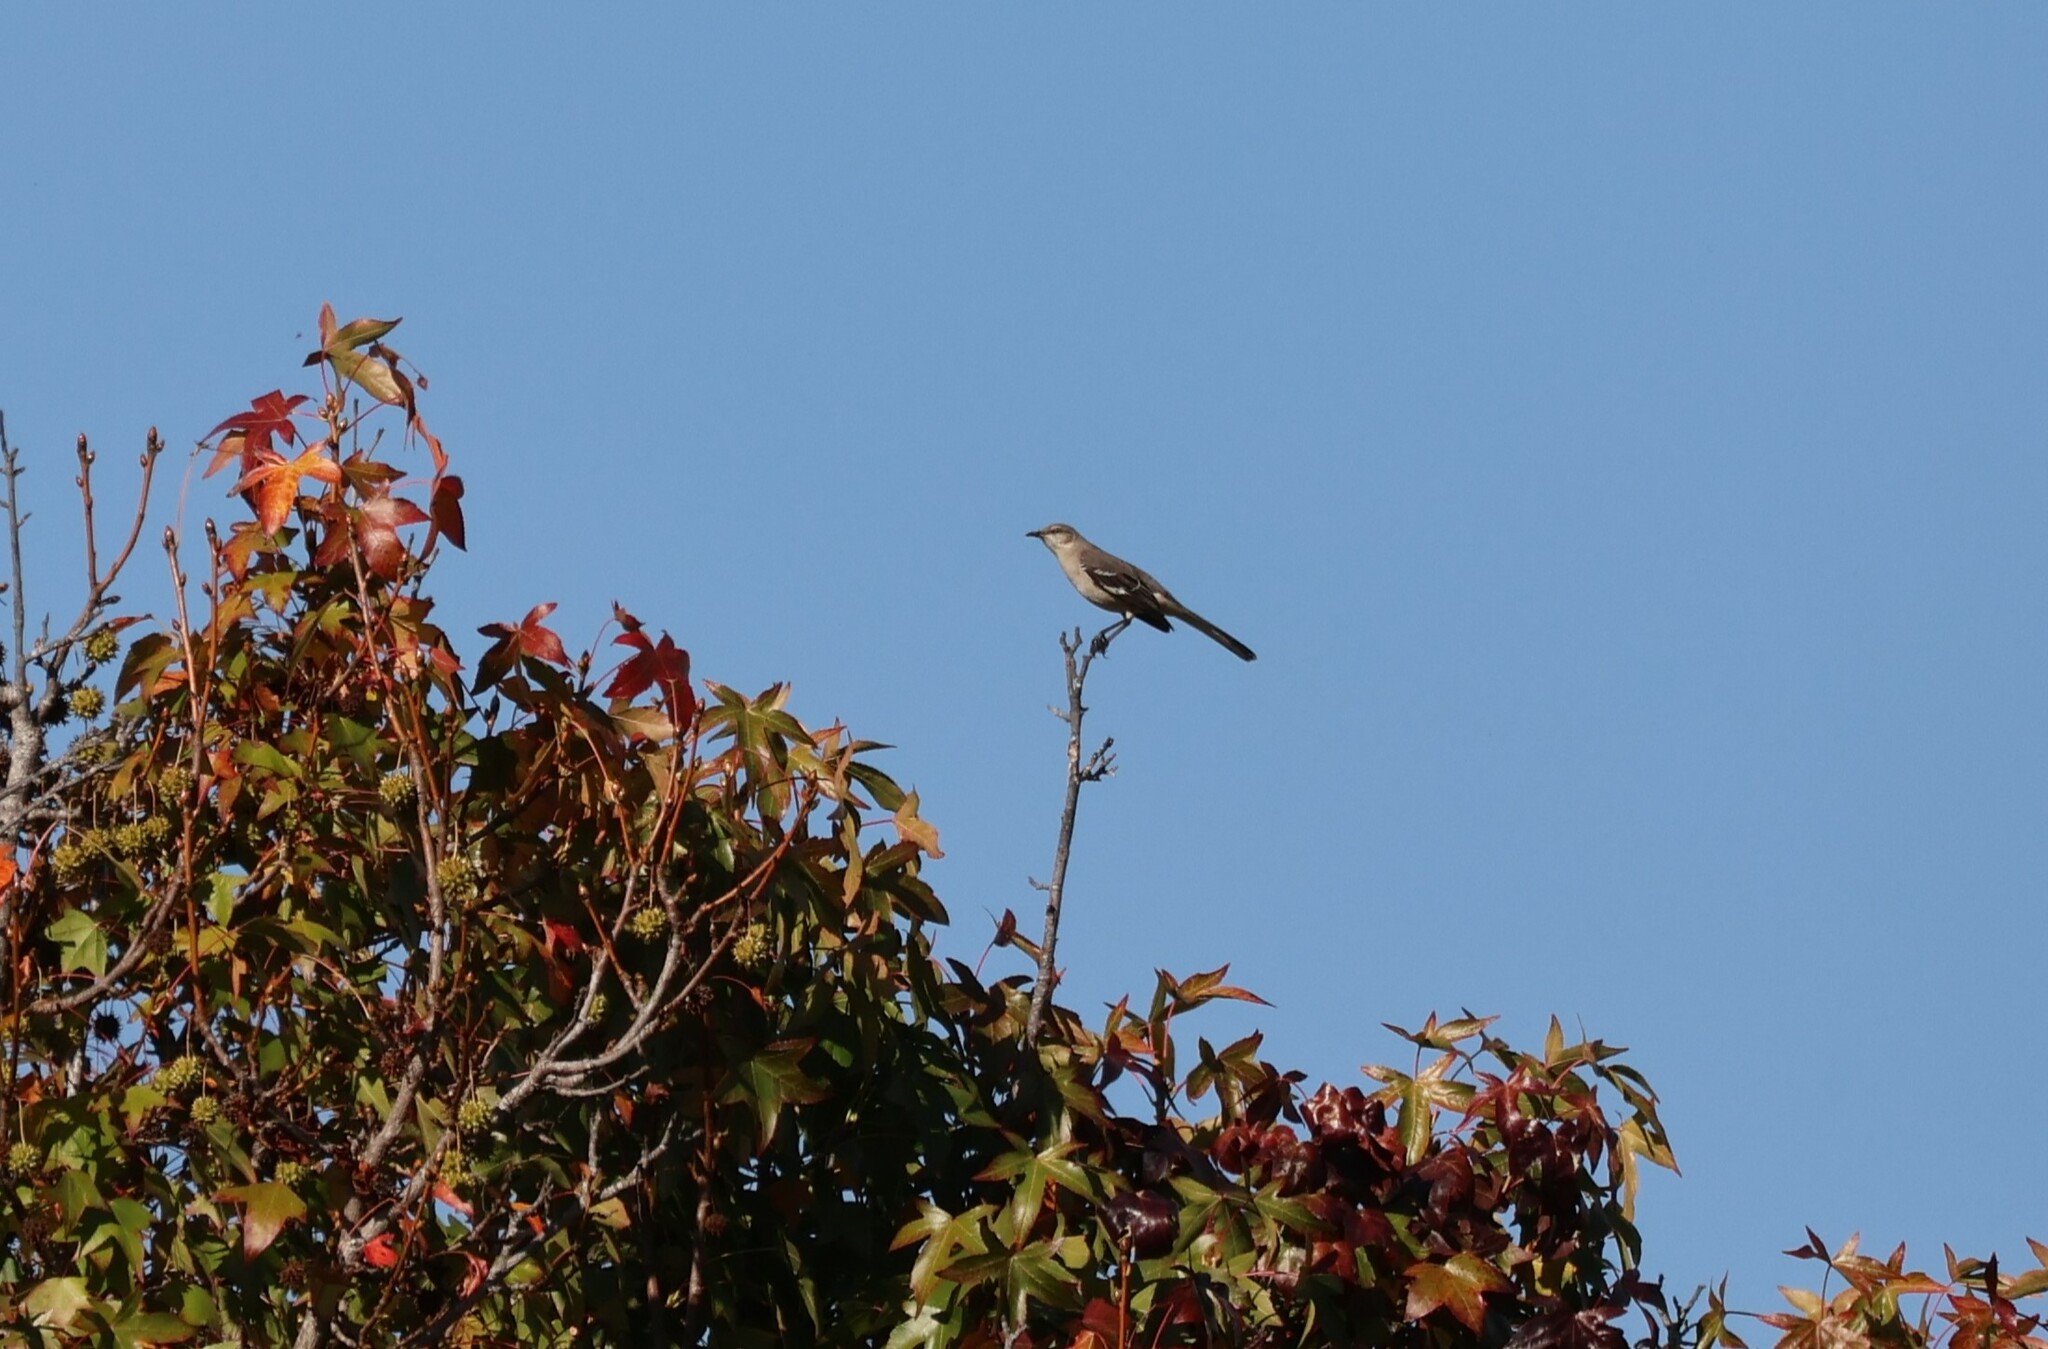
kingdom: Animalia
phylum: Chordata
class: Aves
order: Passeriformes
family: Mimidae
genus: Mimus
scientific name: Mimus polyglottos
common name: Northern mockingbird
